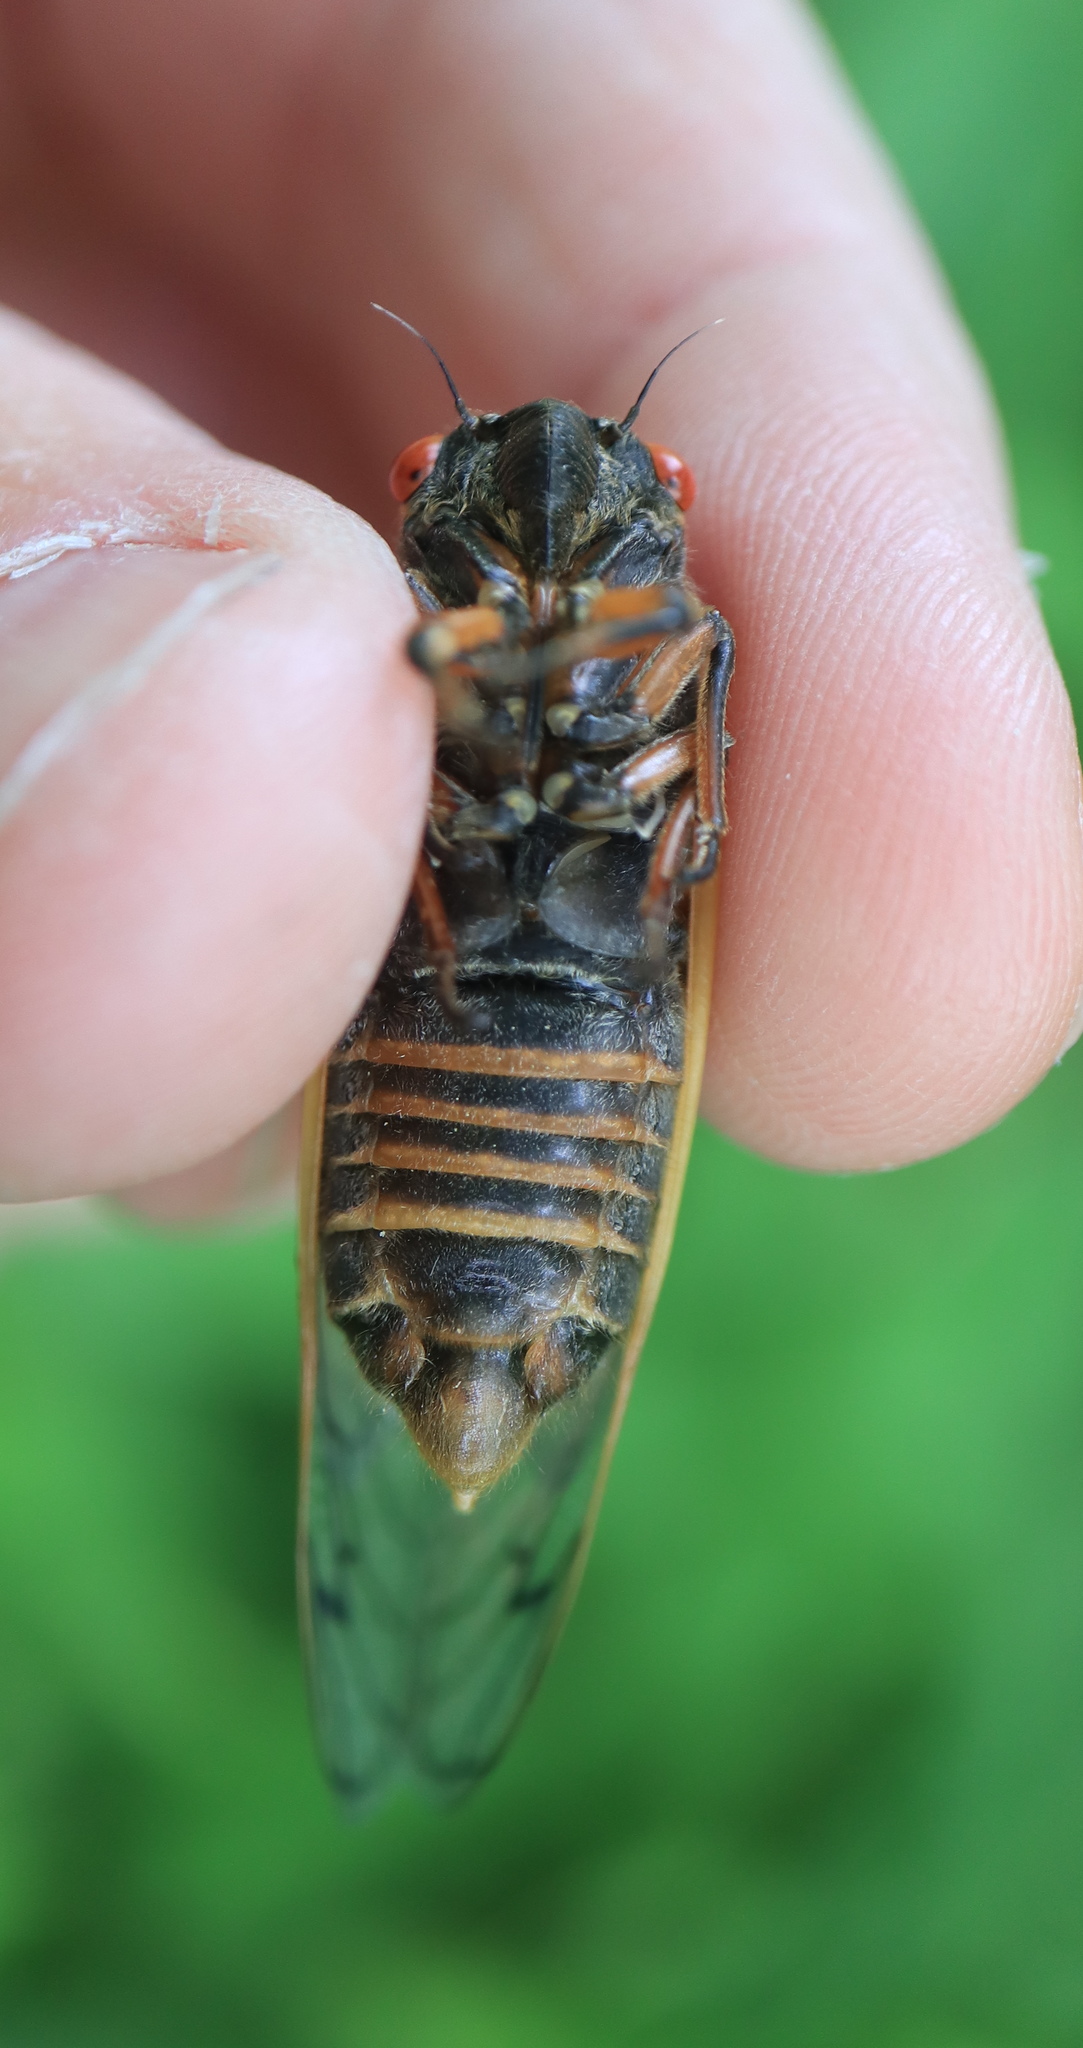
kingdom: Animalia
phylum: Arthropoda
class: Insecta
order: Hemiptera
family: Cicadidae
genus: Magicicada
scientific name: Magicicada septendecula
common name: Decula periodical cicada
